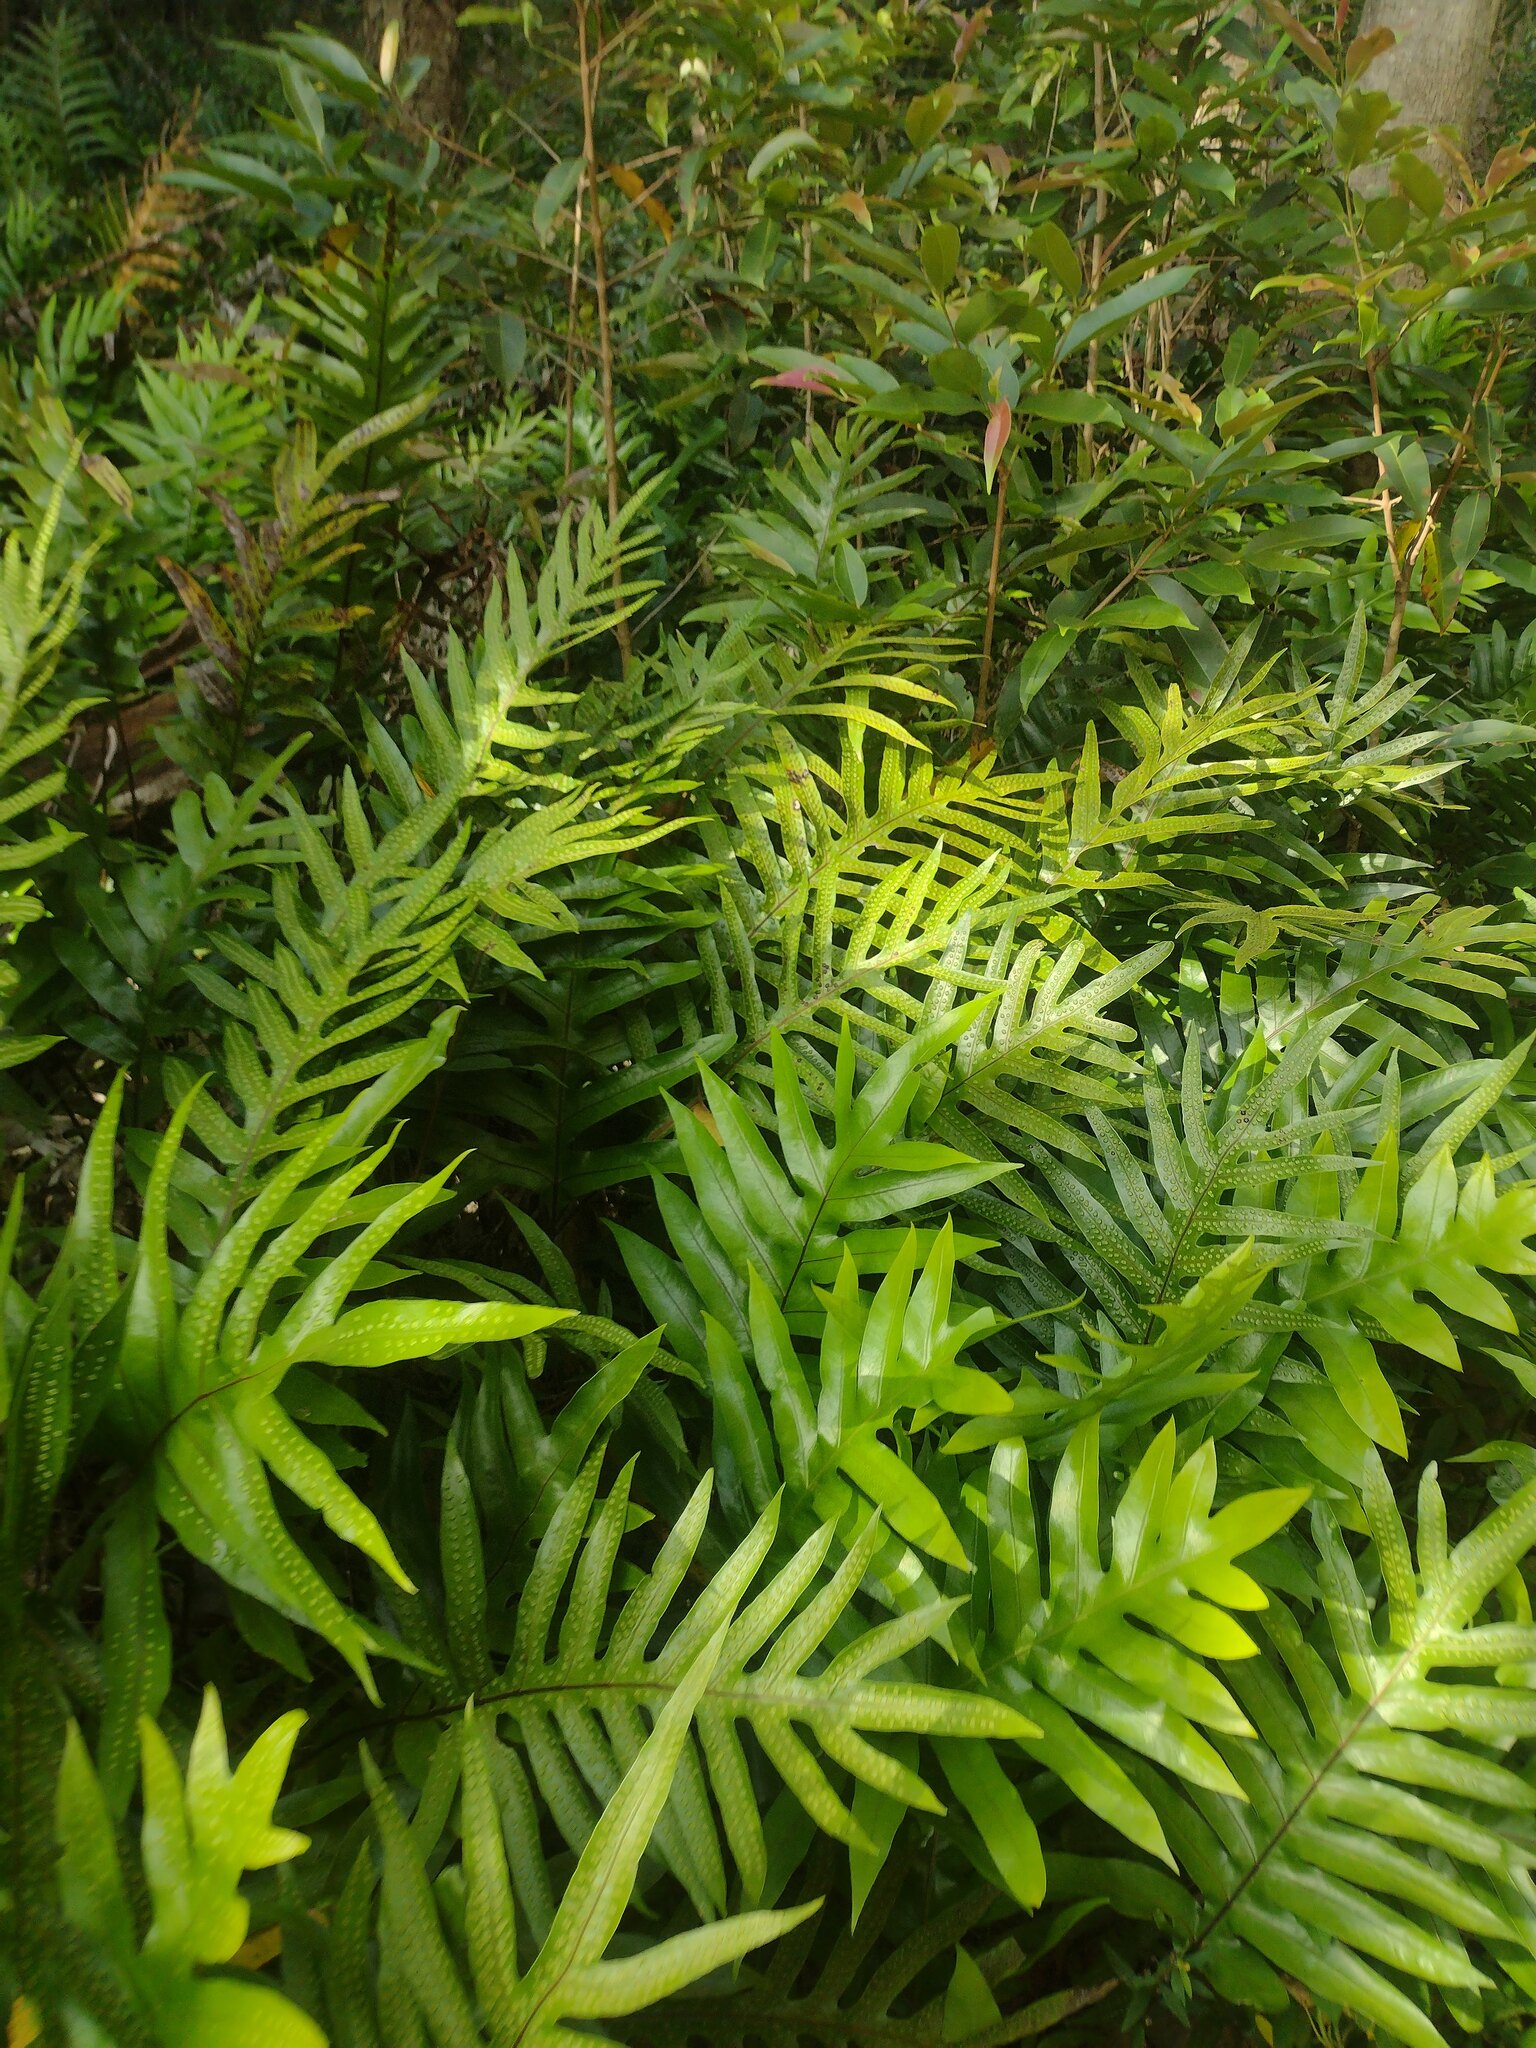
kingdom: Plantae
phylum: Tracheophyta
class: Polypodiopsida
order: Polypodiales
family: Polypodiaceae
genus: Microsorum
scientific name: Microsorum grossum
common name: Musk fern
